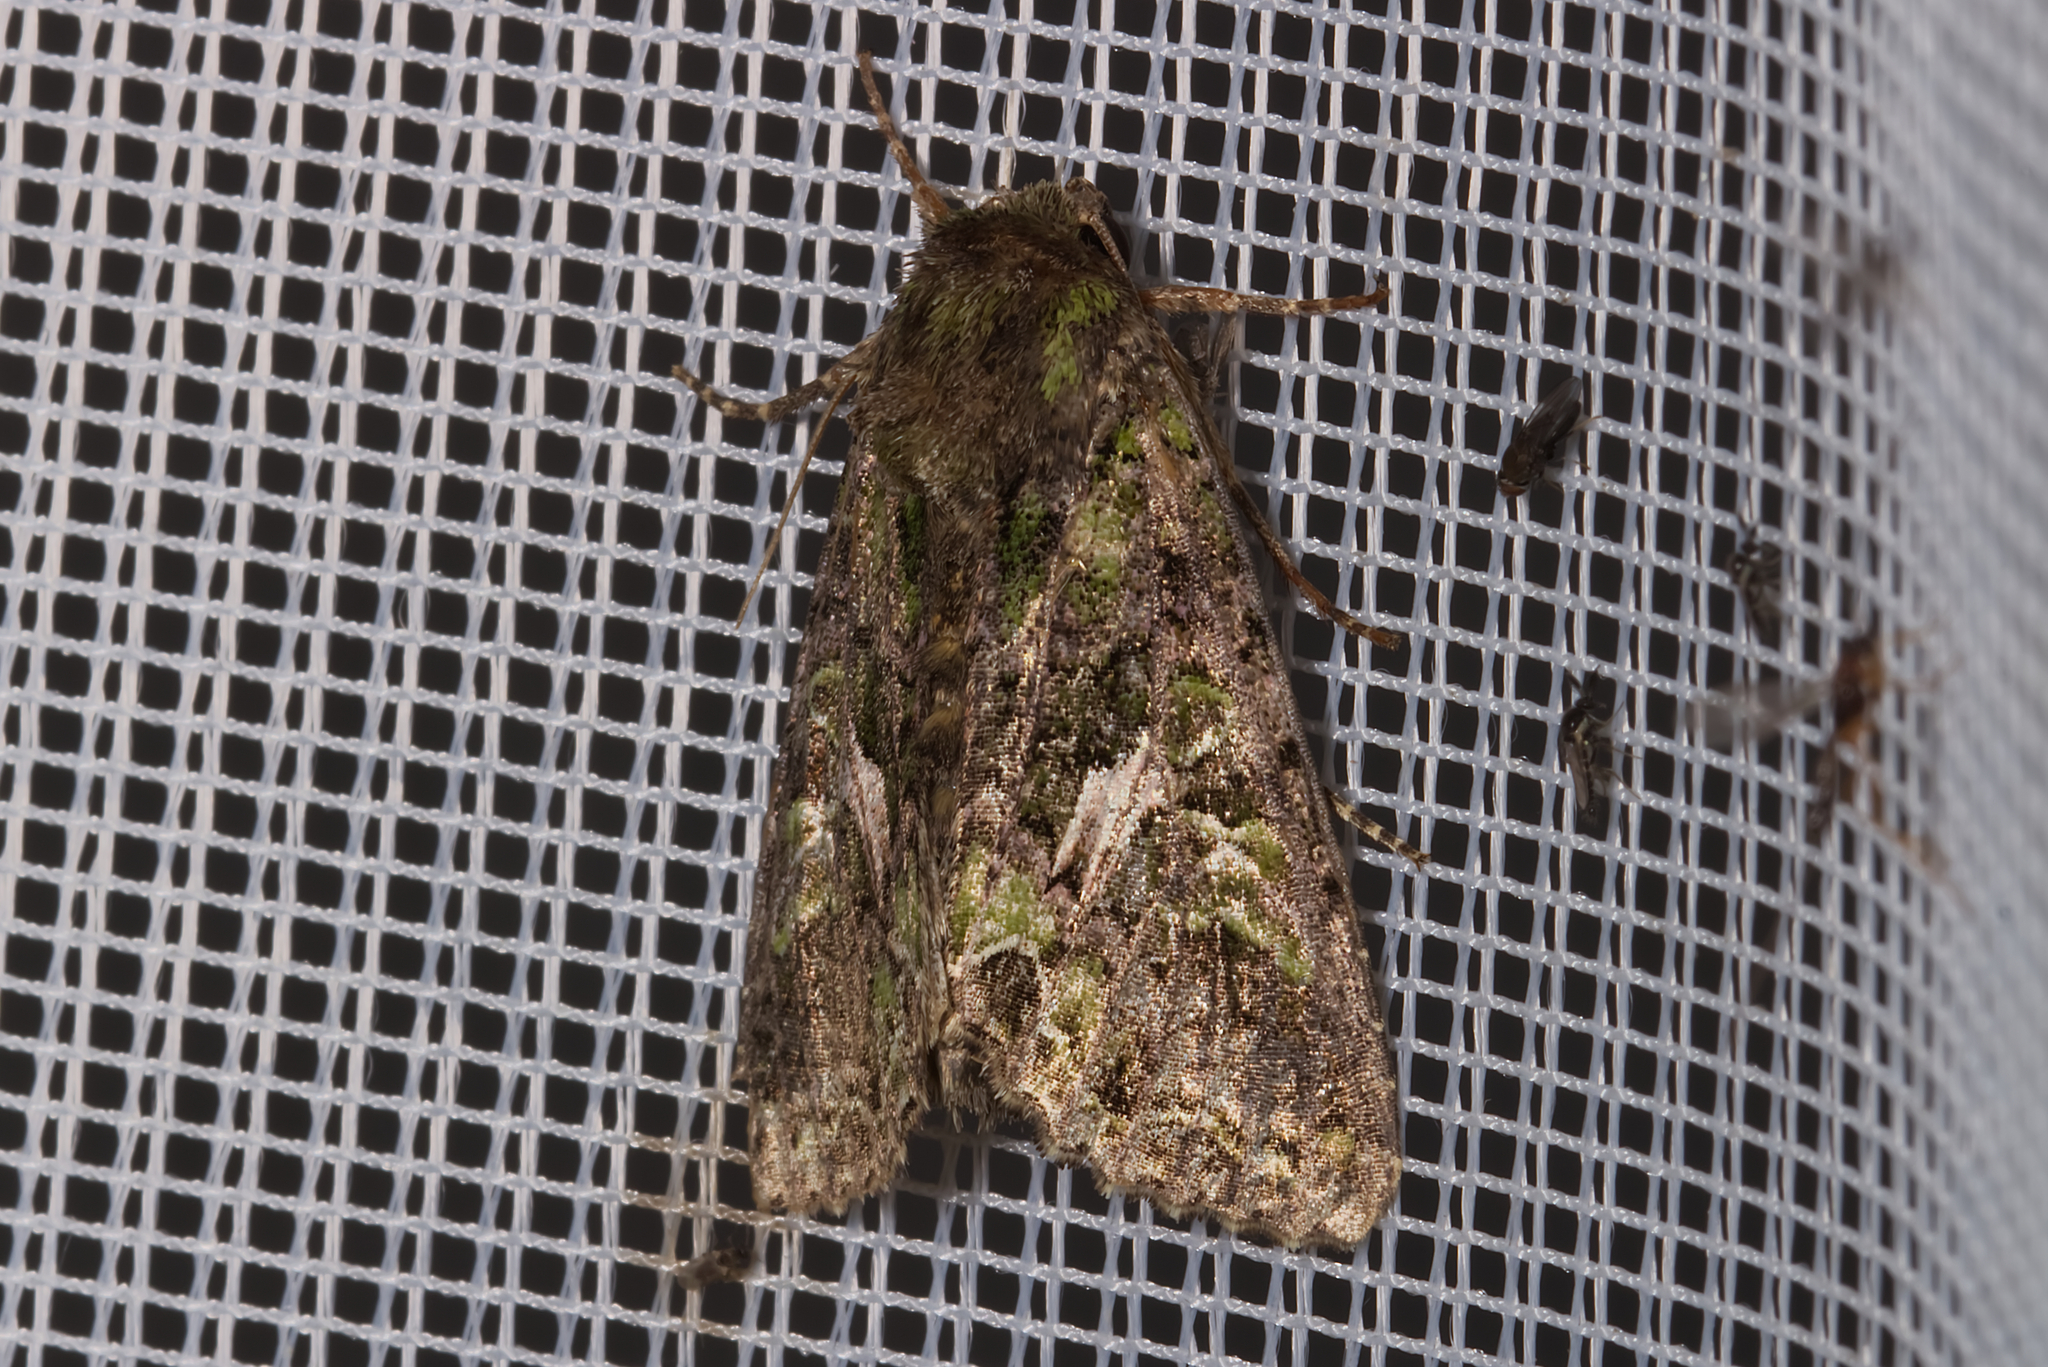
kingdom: Animalia
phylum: Arthropoda
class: Insecta
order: Lepidoptera
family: Noctuidae
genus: Trachea
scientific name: Trachea atriplicis
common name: Orache moth
